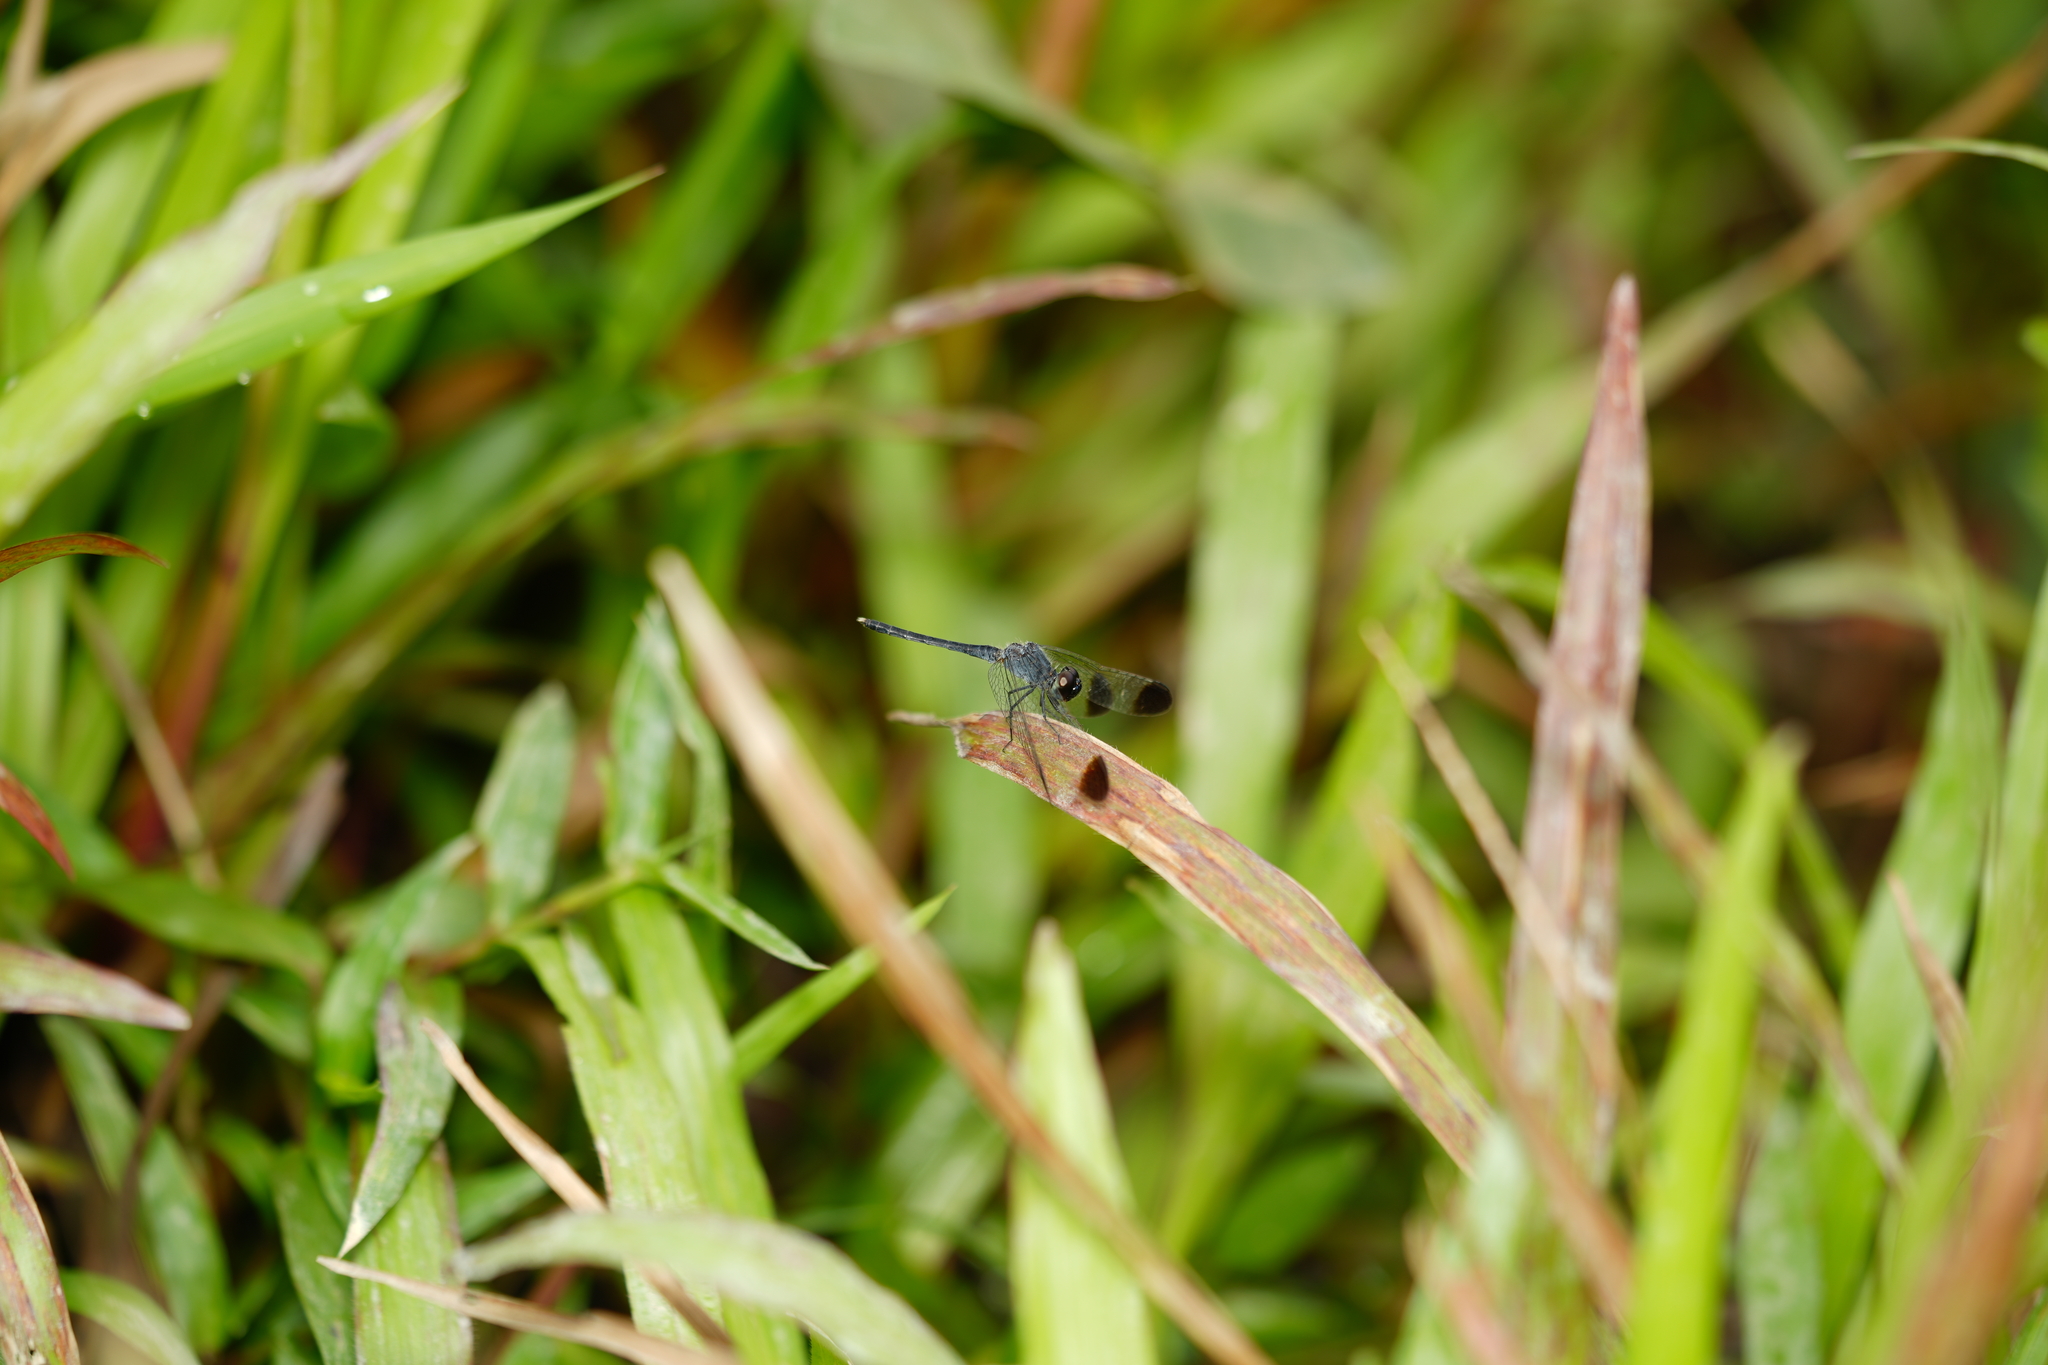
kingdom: Animalia
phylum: Arthropoda
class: Insecta
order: Odonata
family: Libellulidae
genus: Diplacodes
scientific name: Diplacodes nebulosa
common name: Black-tipped percher
